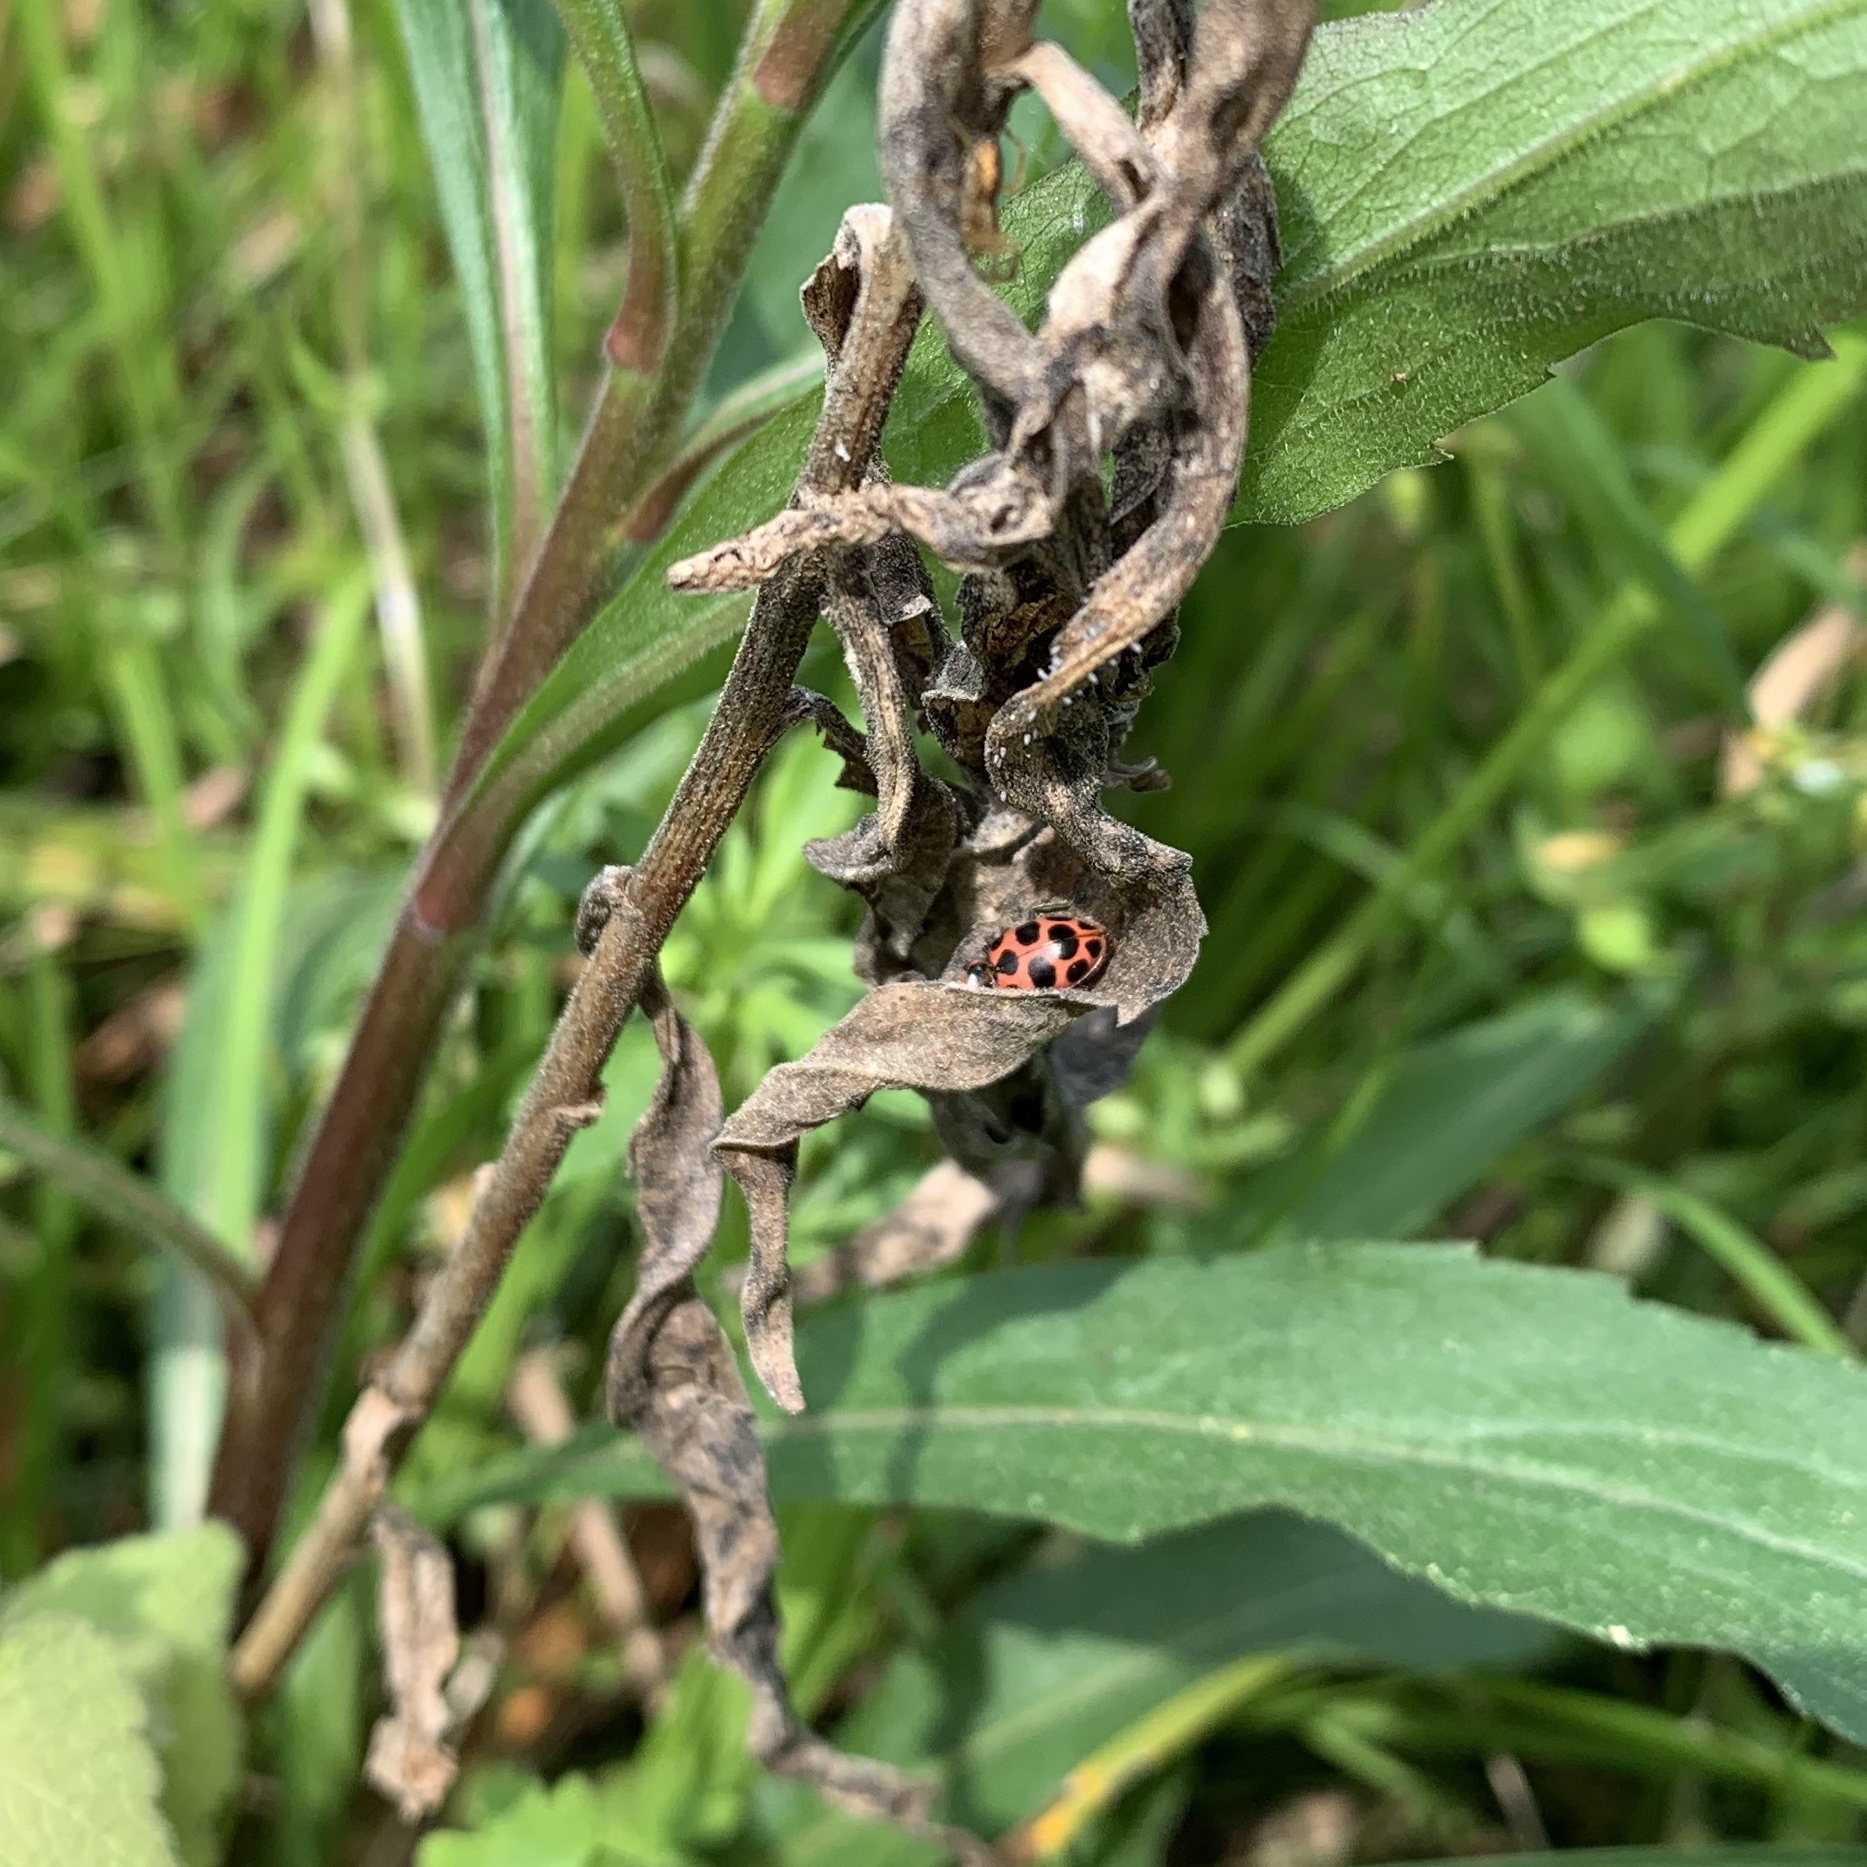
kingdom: Animalia
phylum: Arthropoda
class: Insecta
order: Coleoptera
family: Coccinellidae
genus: Coleomegilla
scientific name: Coleomegilla maculata
